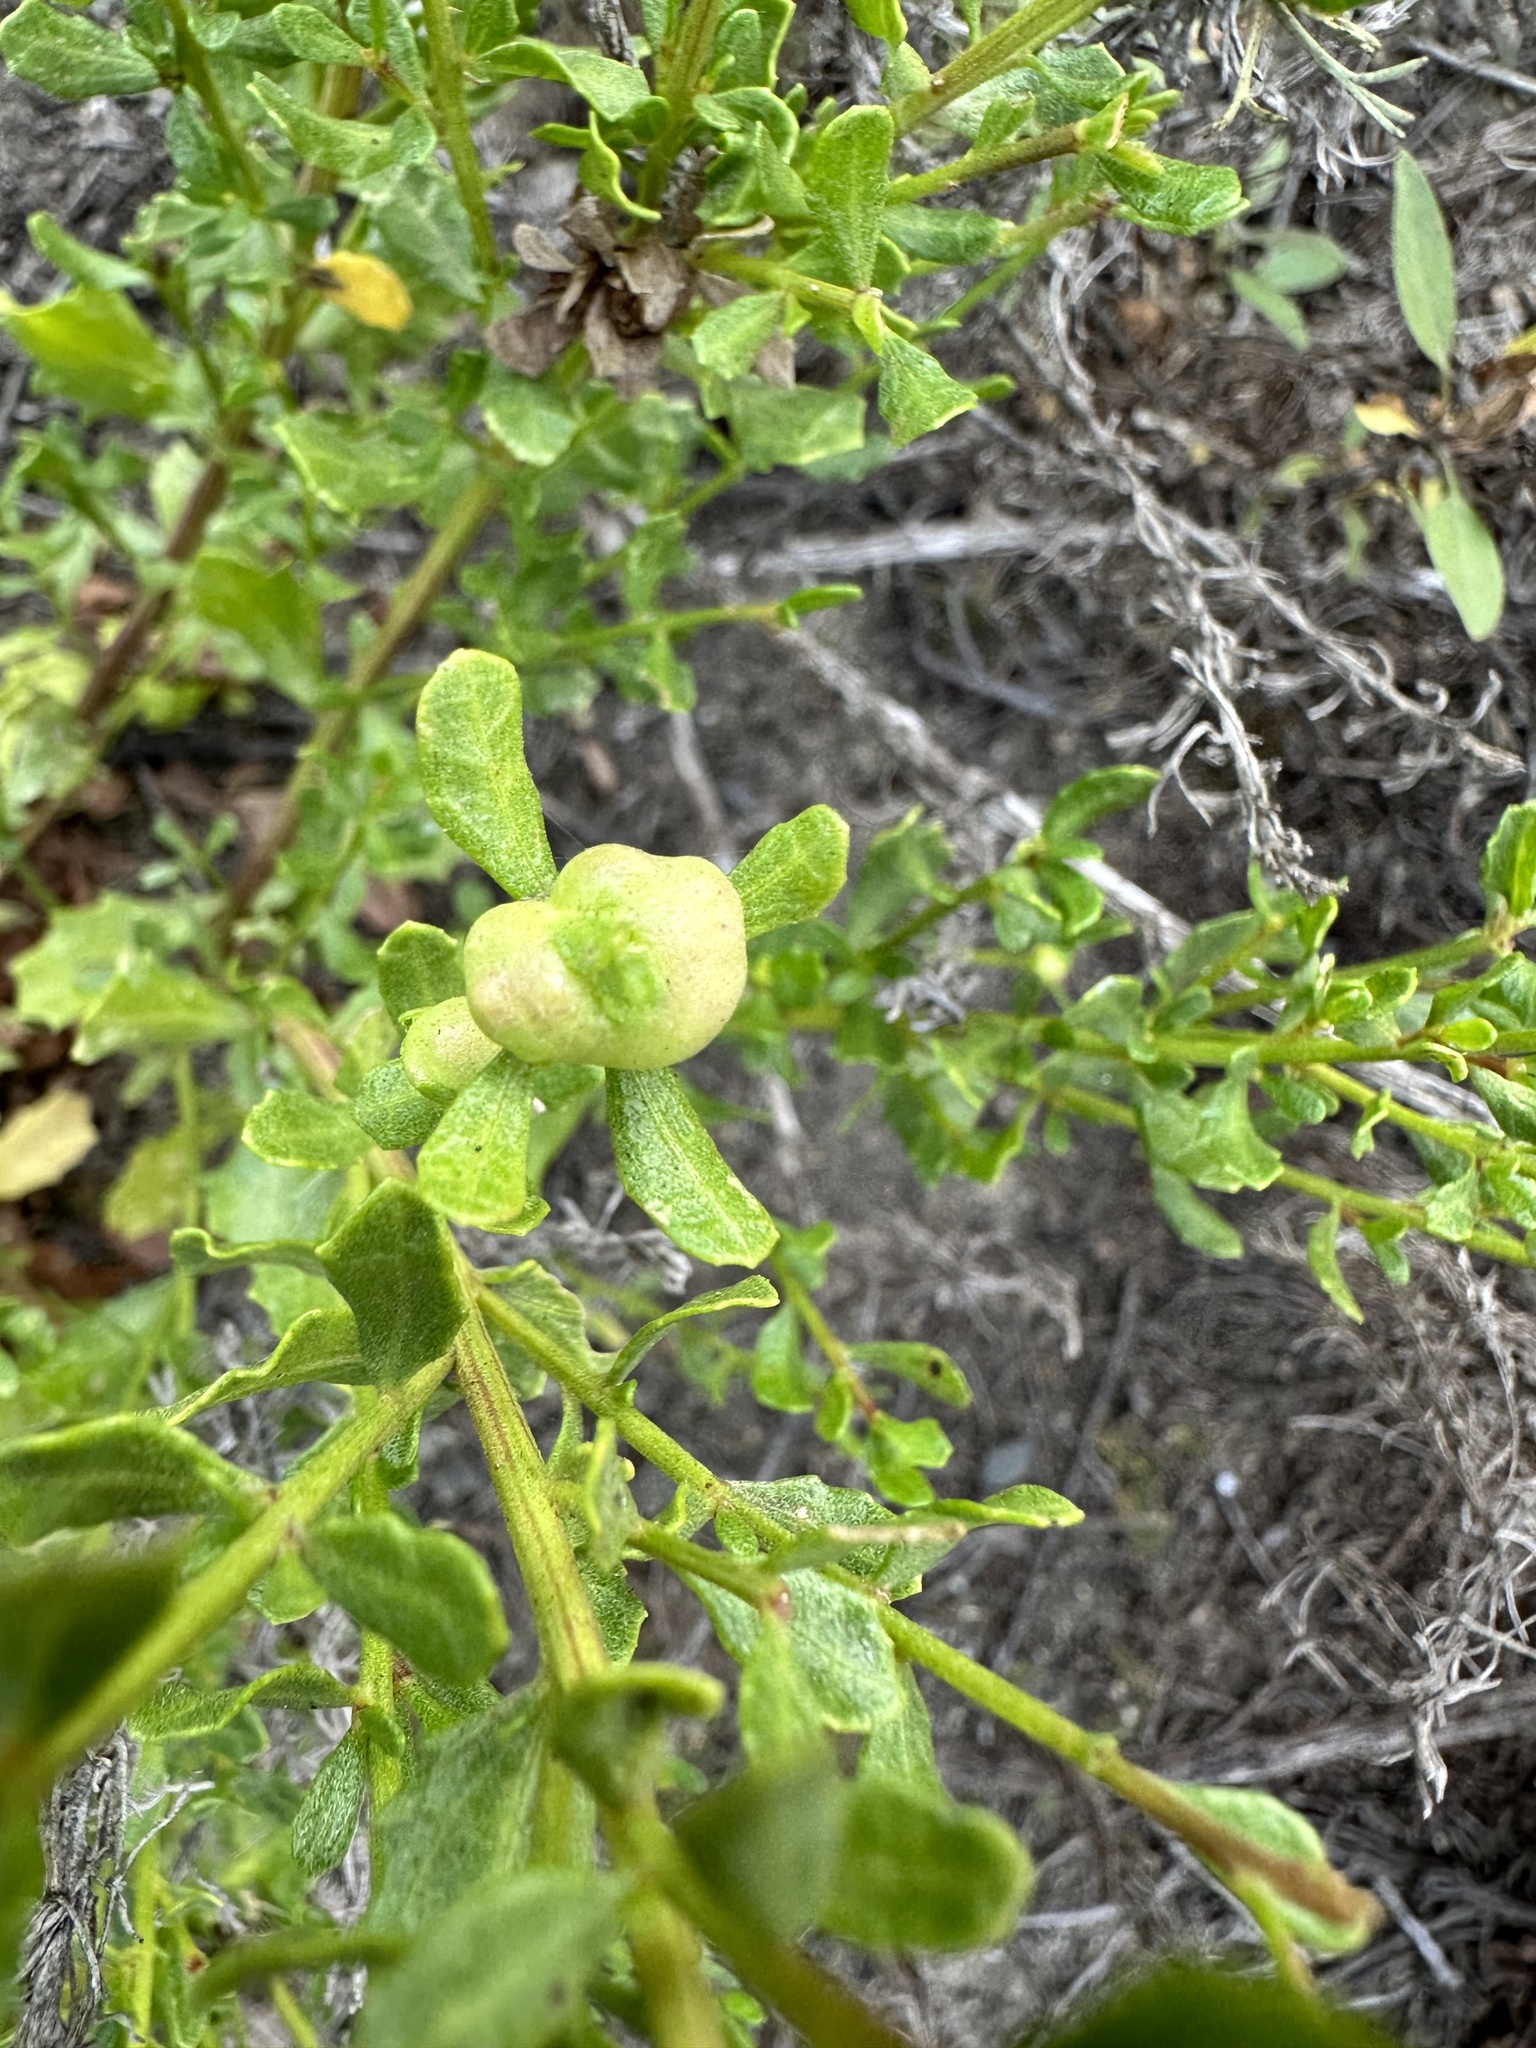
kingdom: Plantae
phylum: Tracheophyta
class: Magnoliopsida
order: Asterales
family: Asteraceae
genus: Baccharis
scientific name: Baccharis pilularis
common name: Coyotebrush
